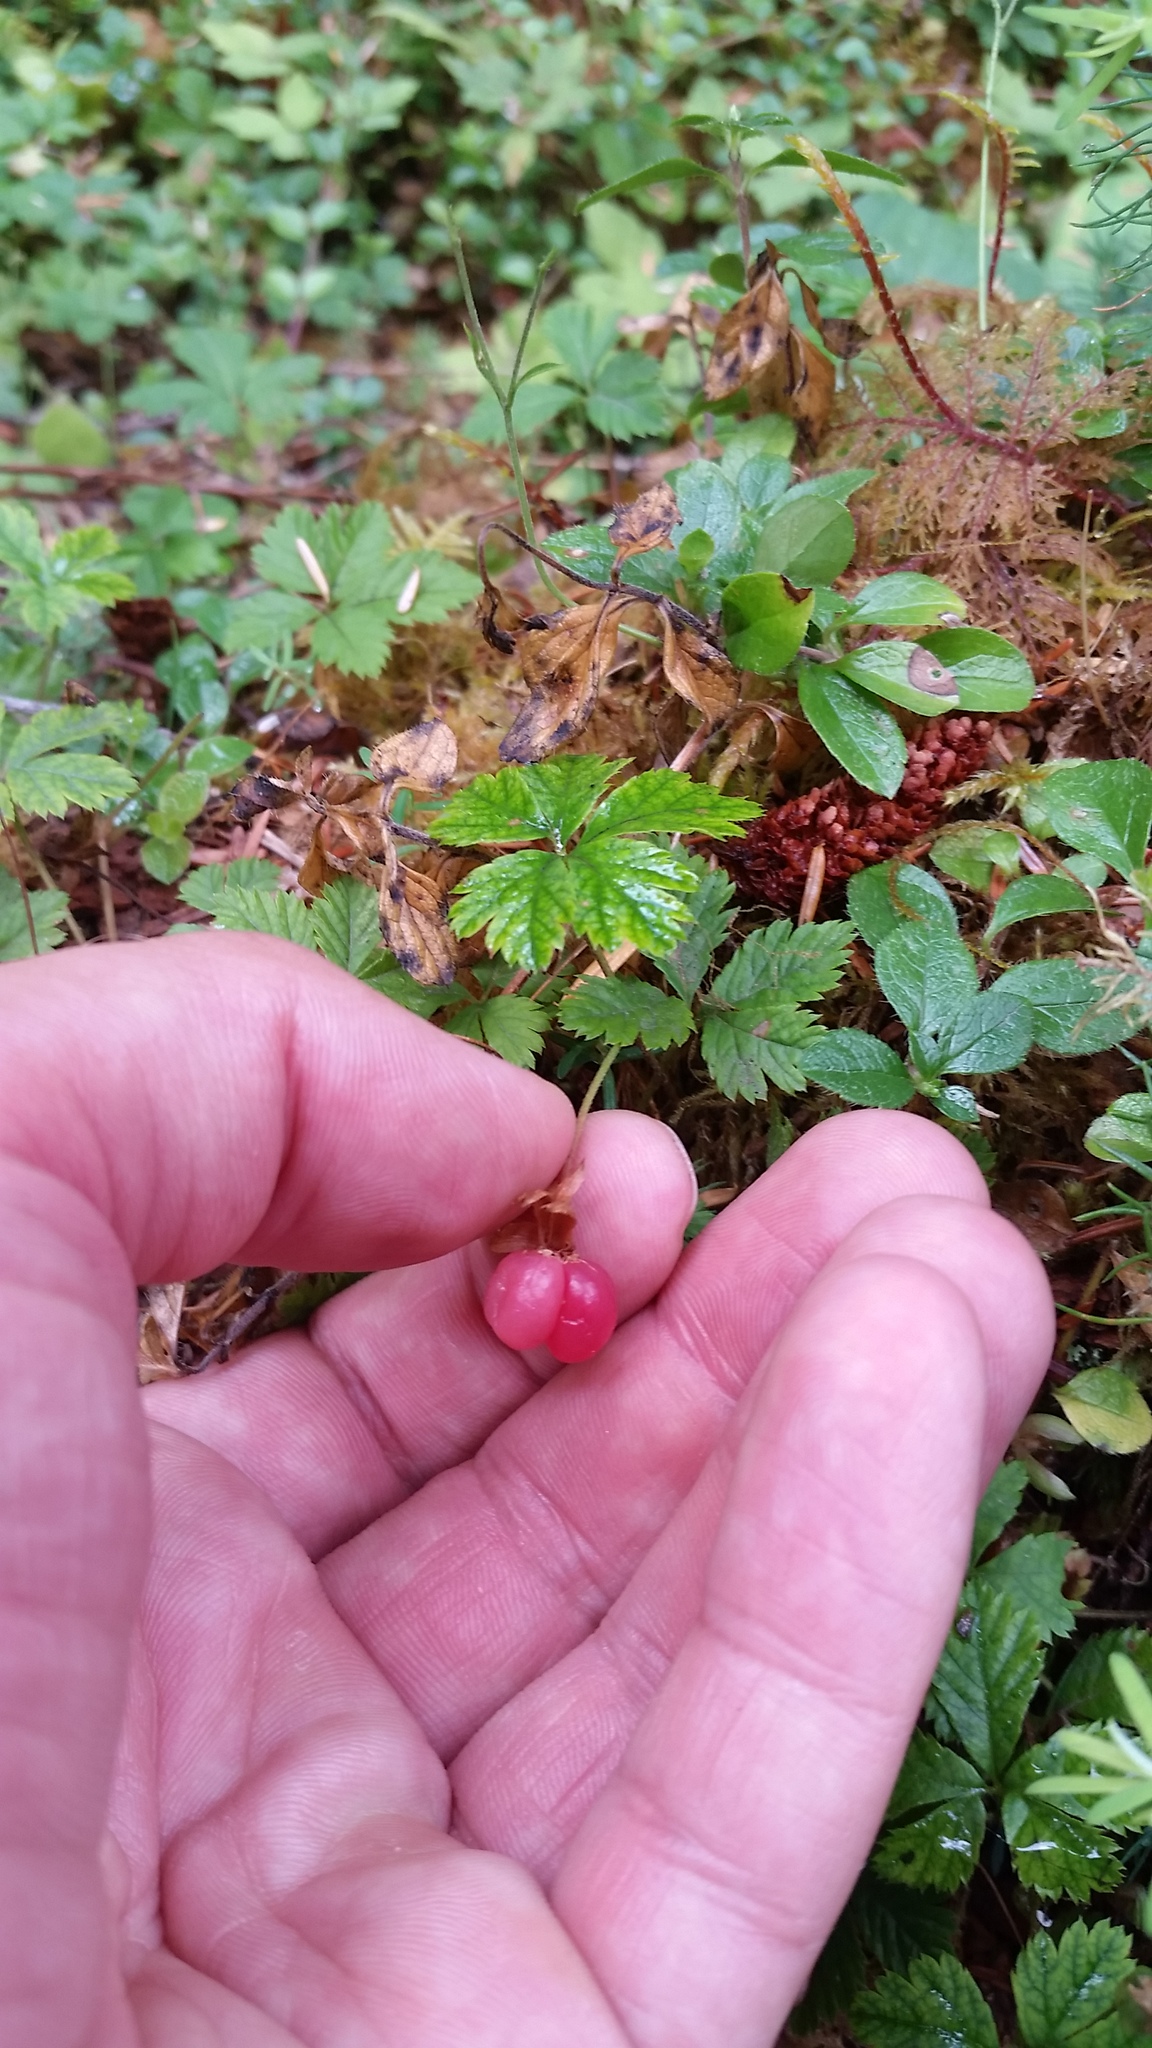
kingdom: Plantae
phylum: Tracheophyta
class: Magnoliopsida
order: Rosales
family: Rosaceae
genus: Rubus
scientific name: Rubus pedatus
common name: Creeping raspberry
